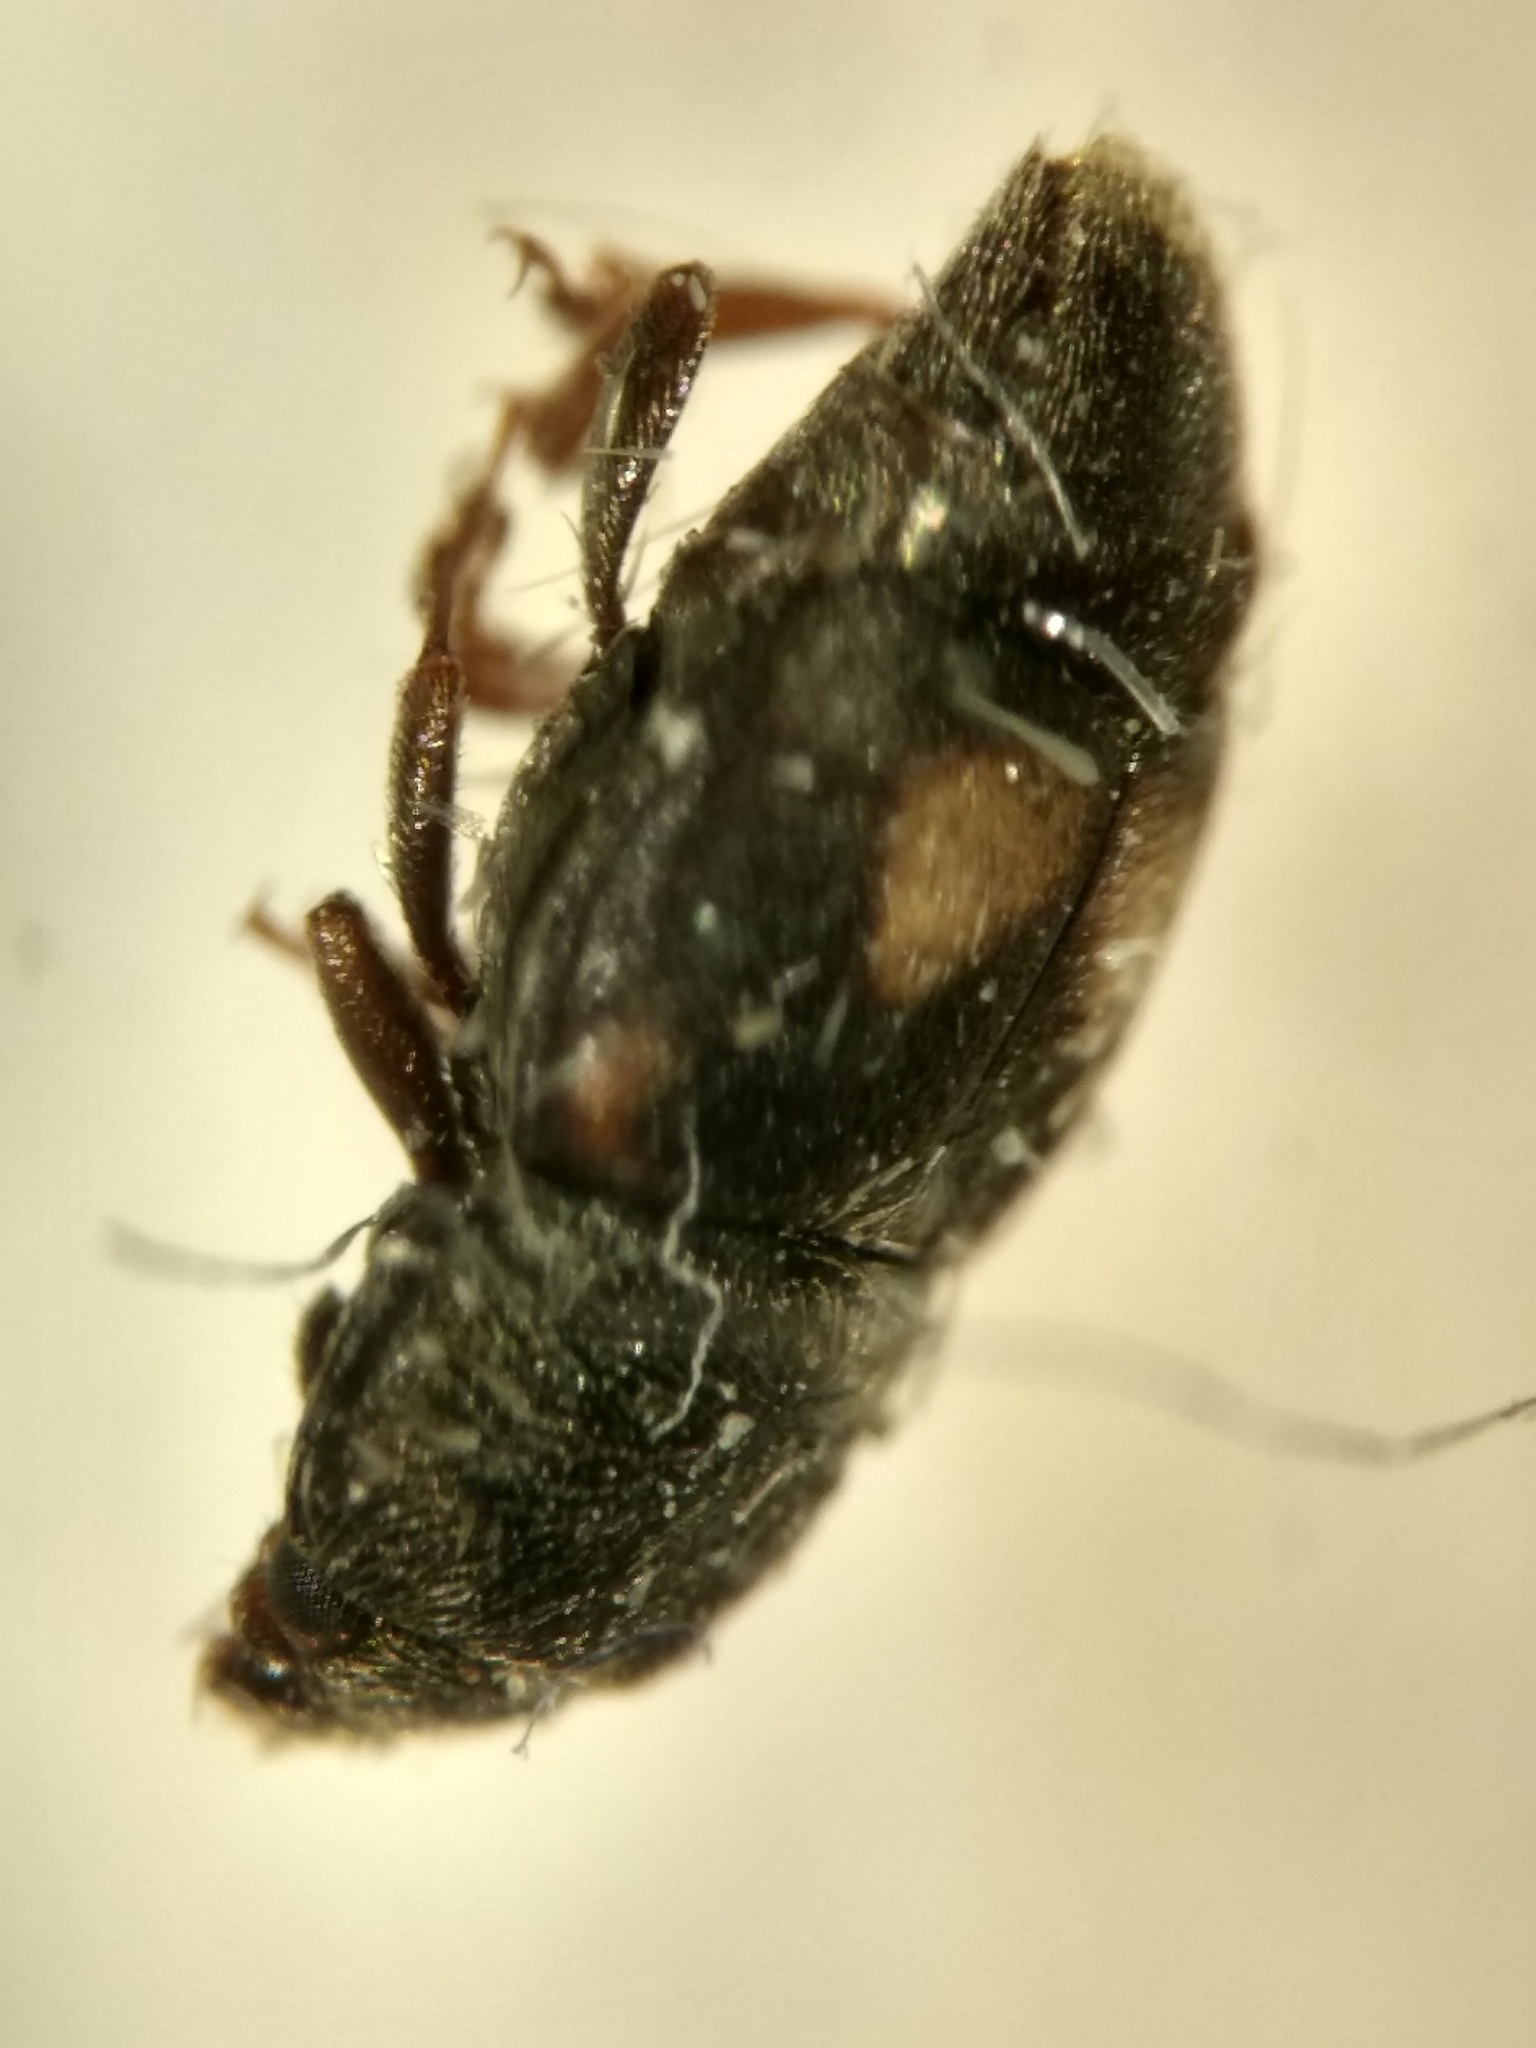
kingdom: Animalia
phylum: Arthropoda
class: Insecta
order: Coleoptera
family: Nitidulidae
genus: Carpophilus
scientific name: Carpophilus hemipterus
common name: Dried fruit beetle
